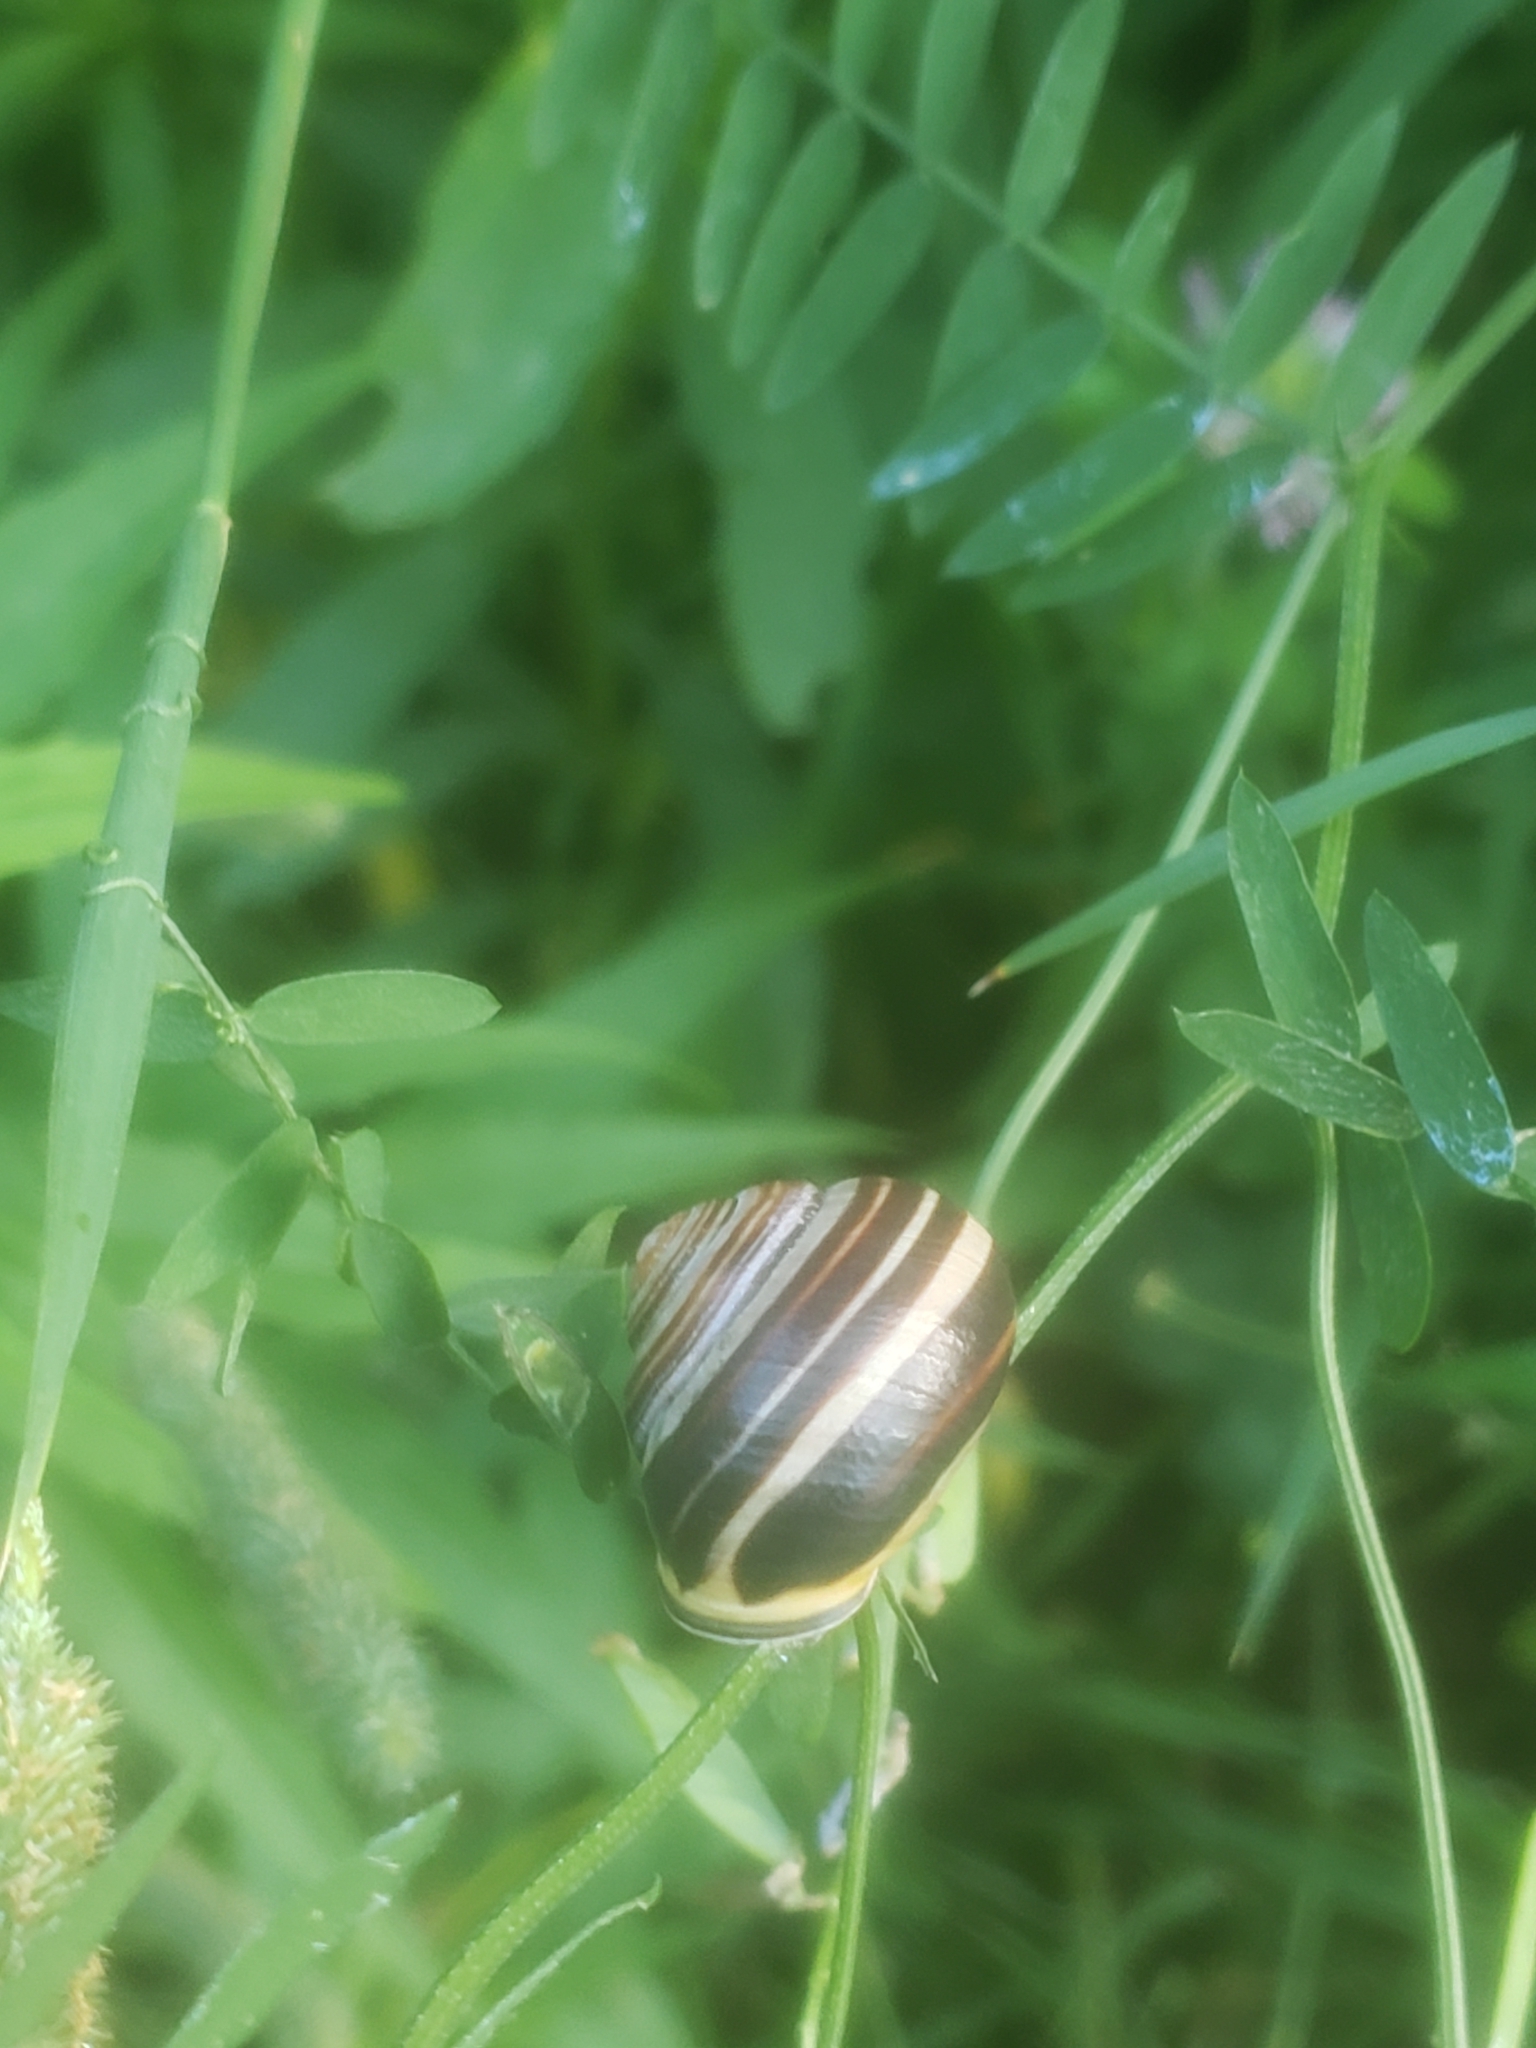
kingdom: Animalia
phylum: Mollusca
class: Gastropoda
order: Stylommatophora
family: Helicidae
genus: Cepaea
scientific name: Cepaea nemoralis
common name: Grovesnail
